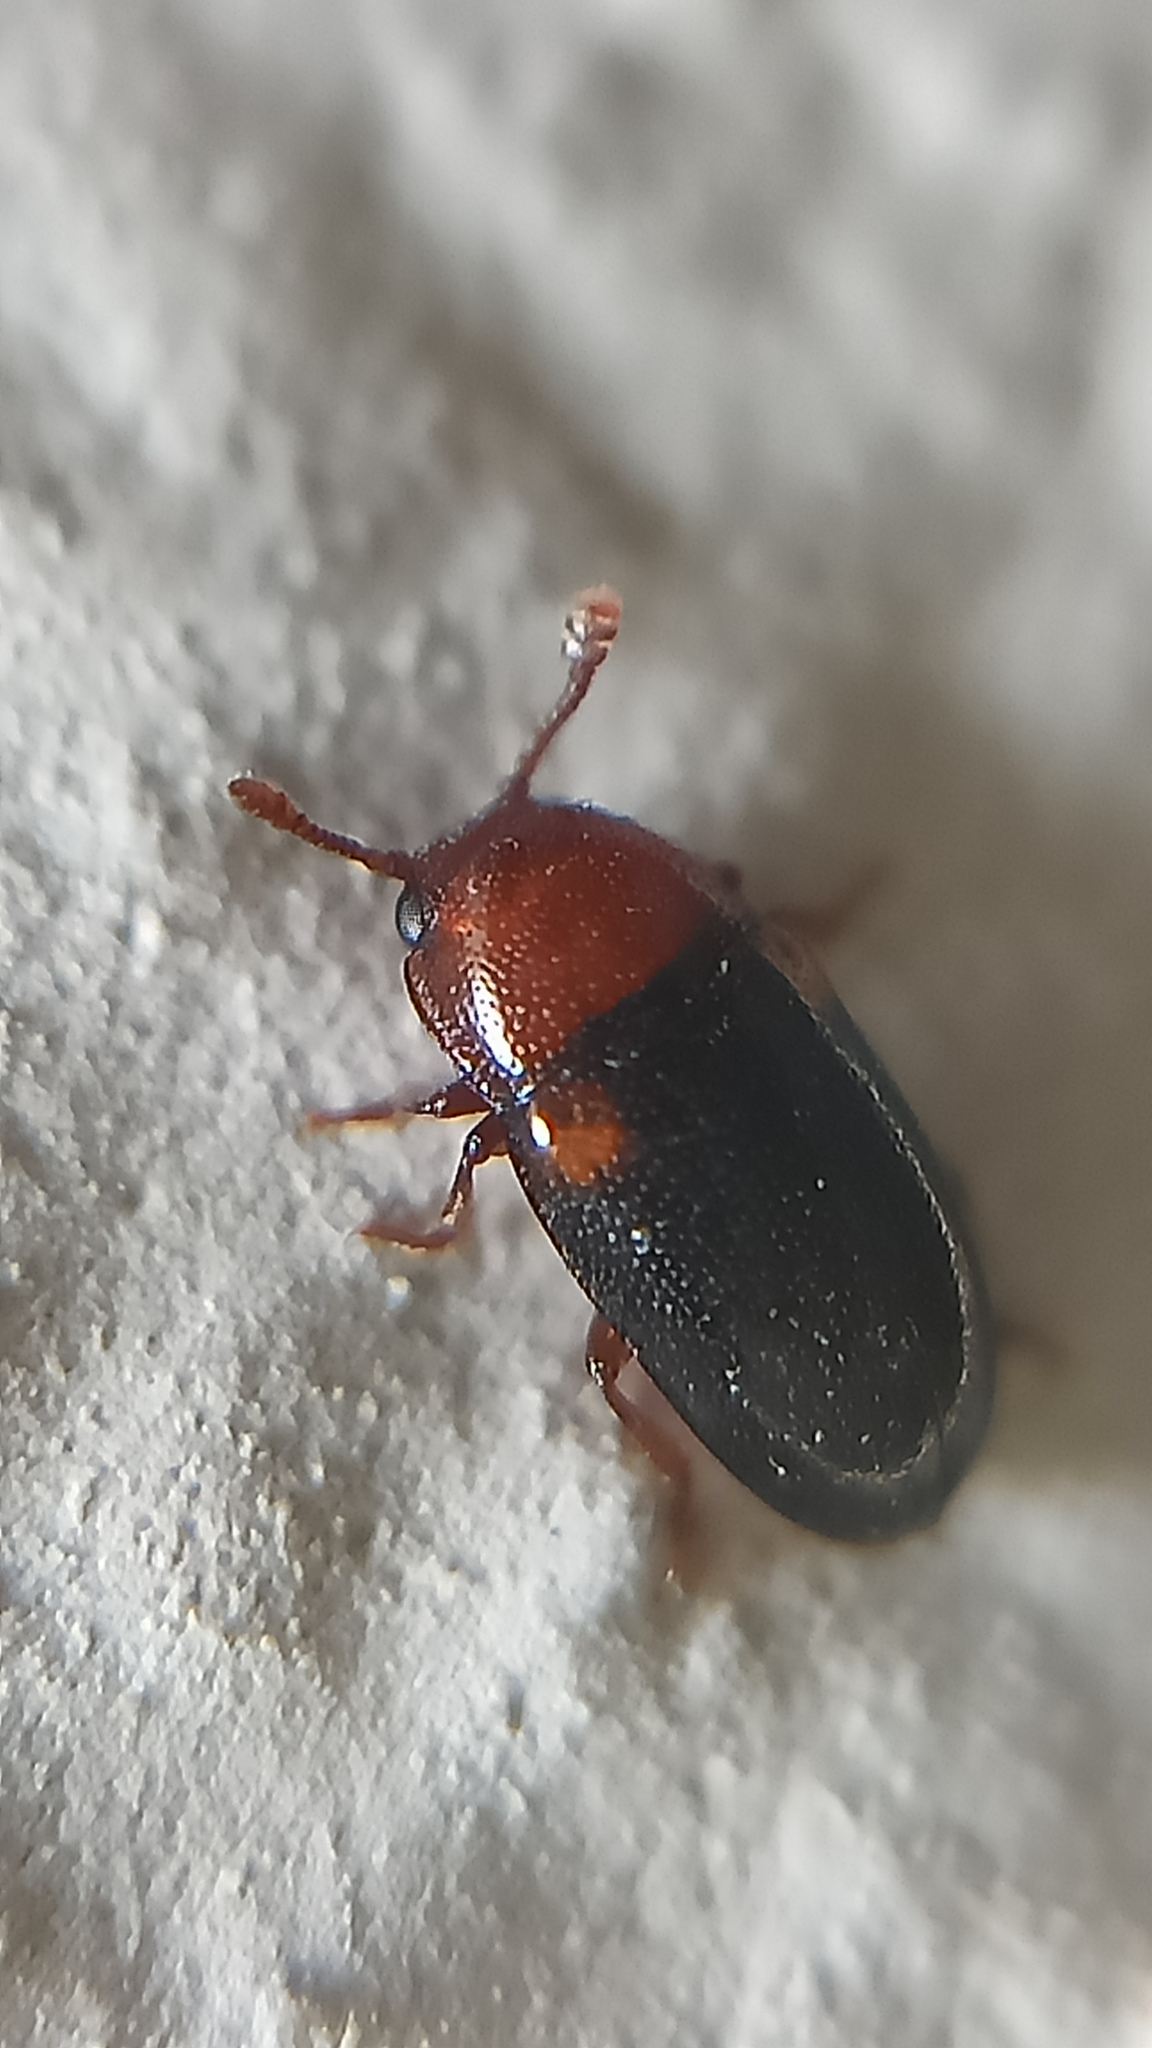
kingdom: Animalia
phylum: Arthropoda
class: Insecta
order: Coleoptera
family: Erotylidae
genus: Dacne
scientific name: Dacne bipustulata
